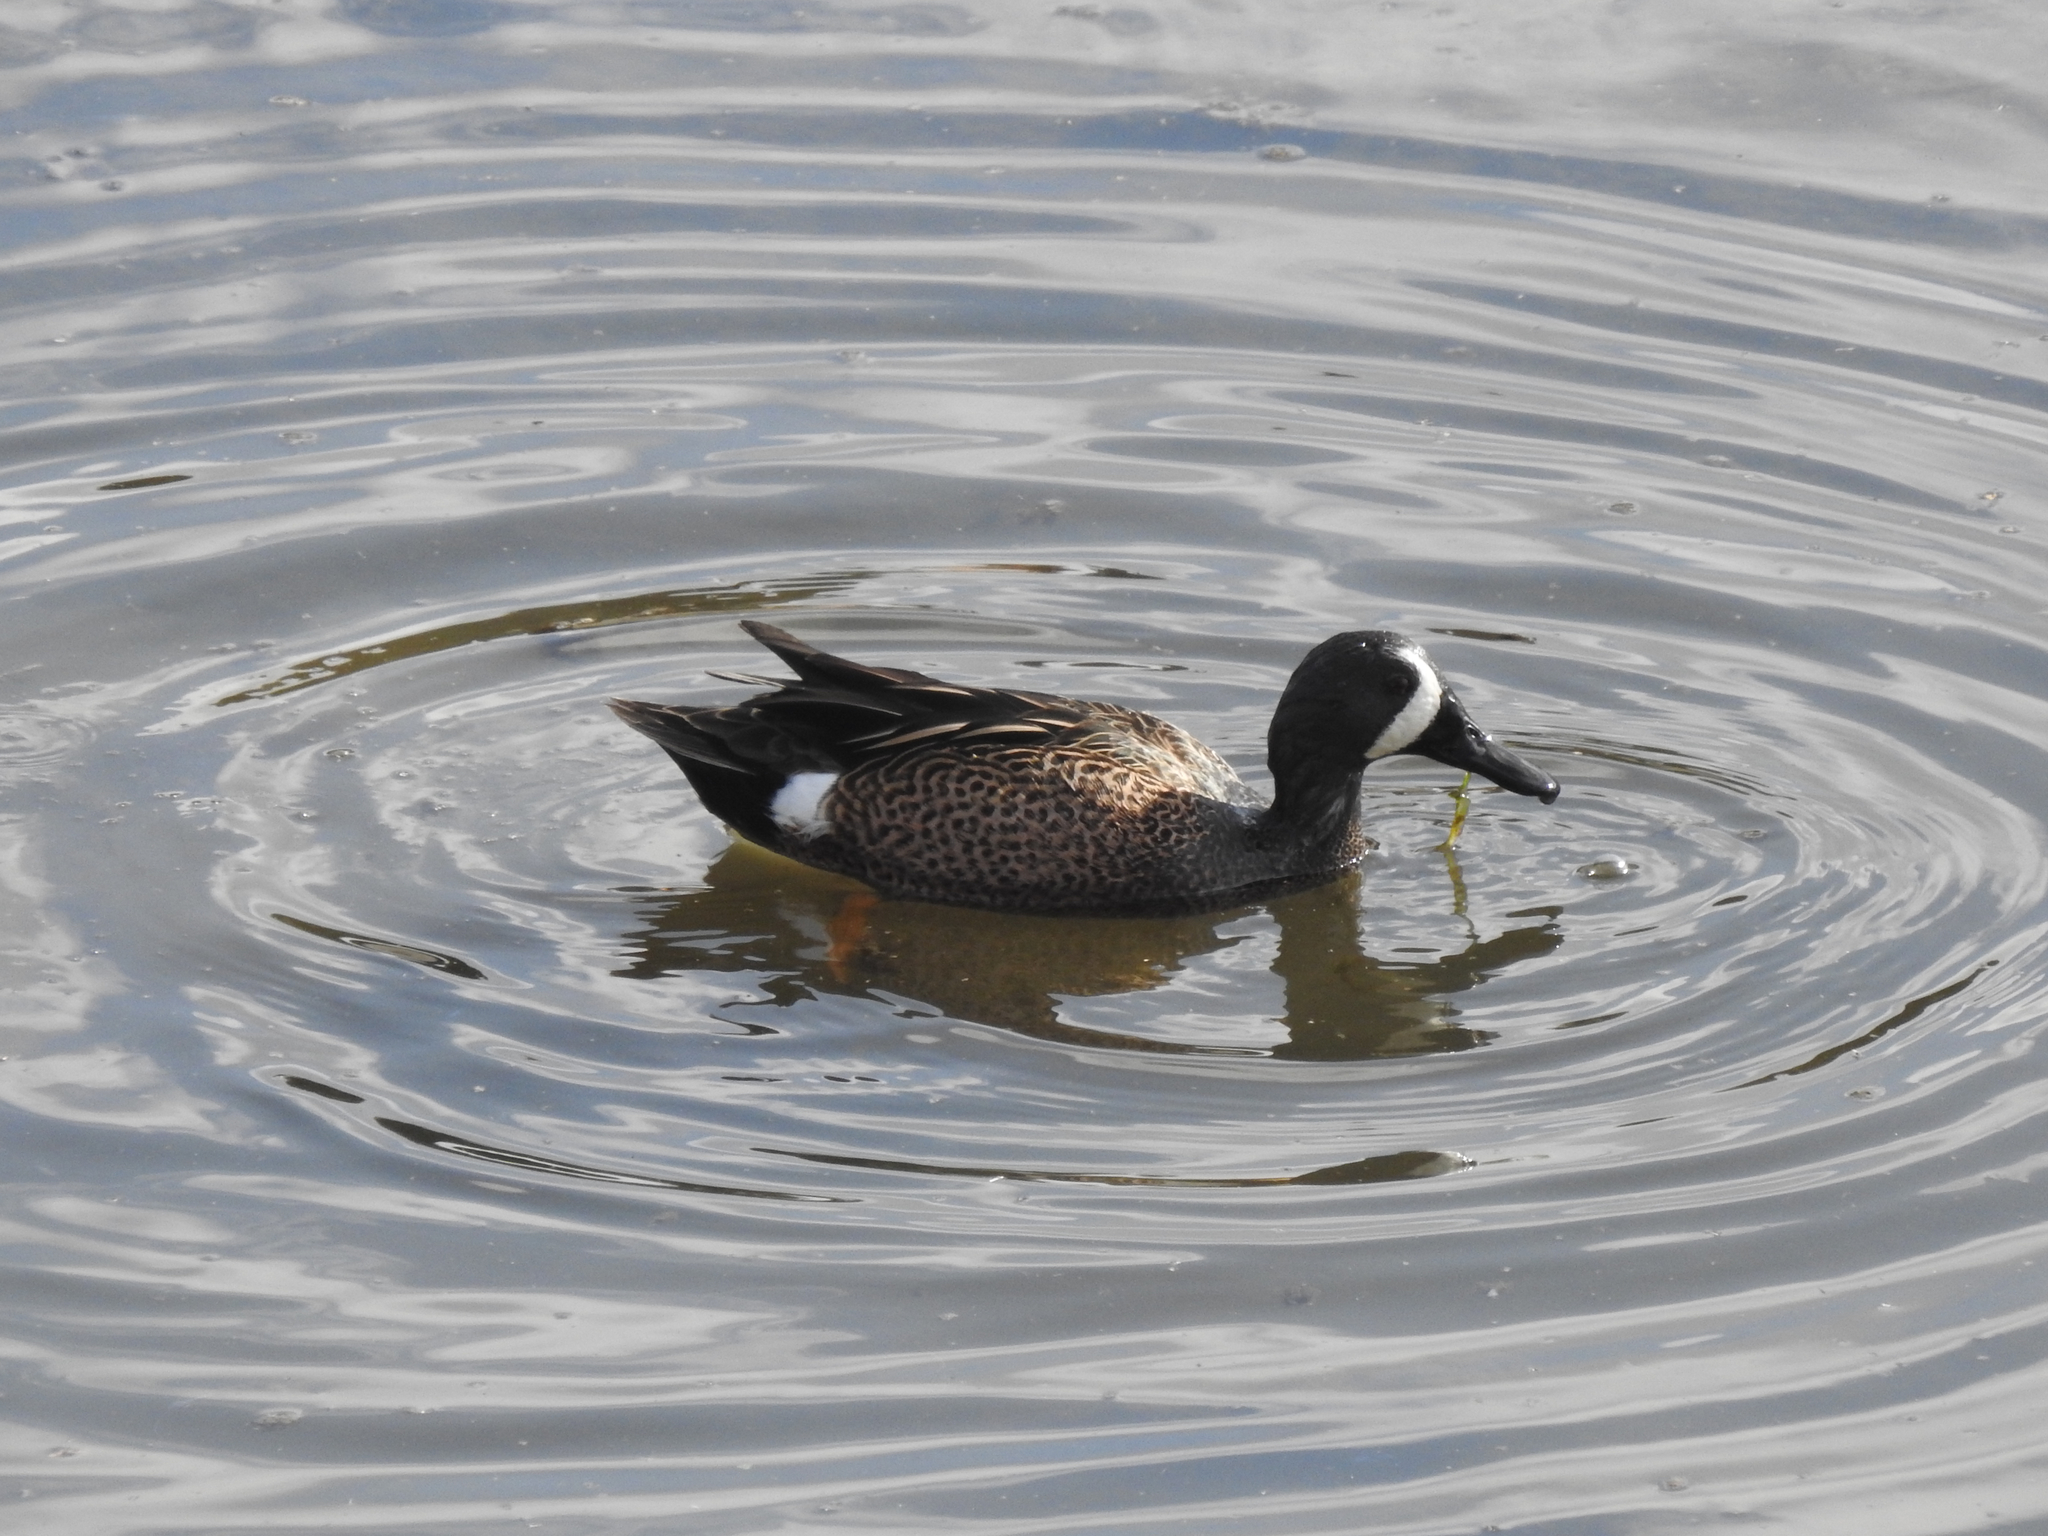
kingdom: Animalia
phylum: Chordata
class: Aves
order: Anseriformes
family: Anatidae
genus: Spatula
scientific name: Spatula discors
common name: Blue-winged teal
